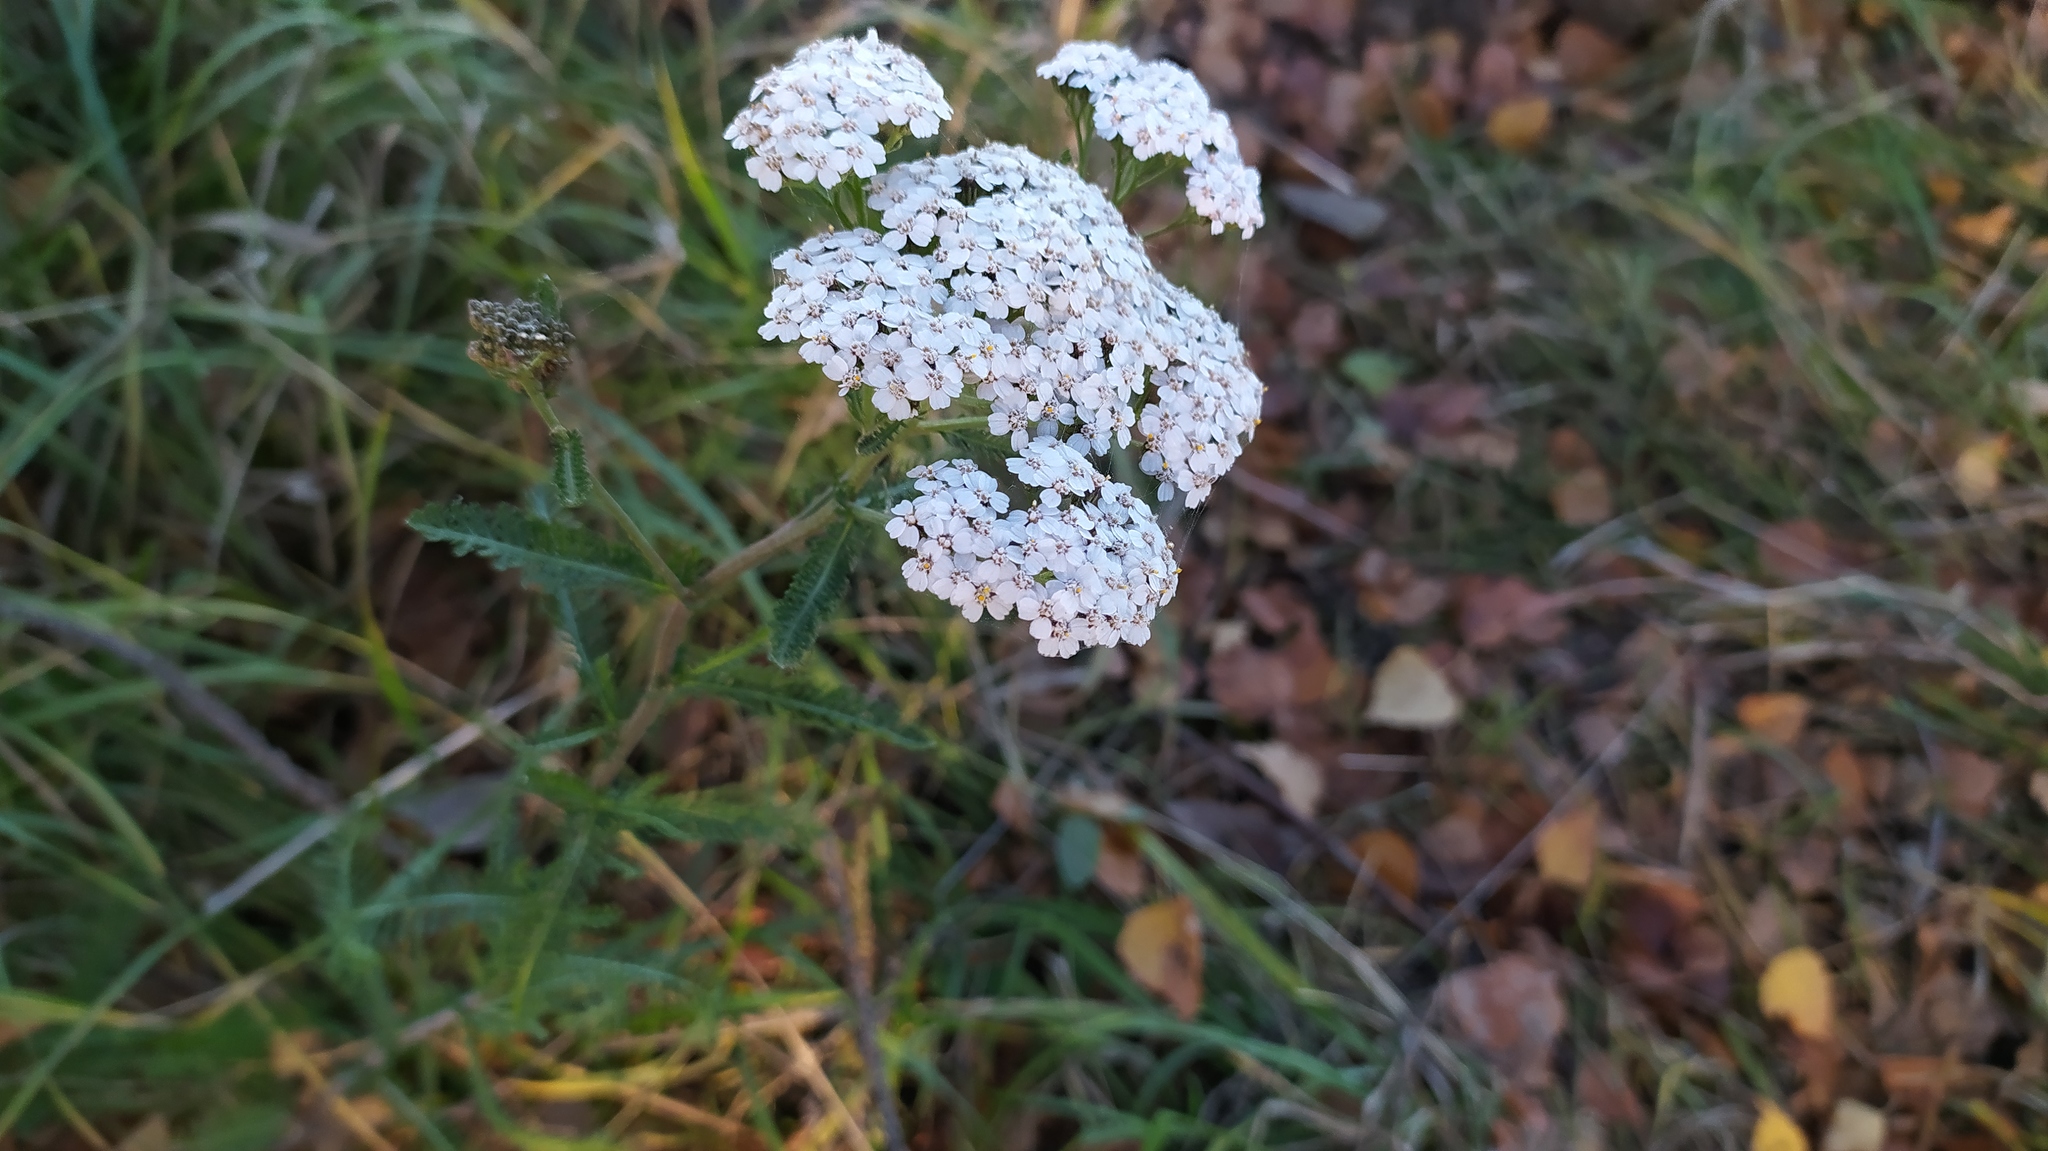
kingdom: Plantae
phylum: Tracheophyta
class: Magnoliopsida
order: Asterales
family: Asteraceae
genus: Achillea
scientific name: Achillea millefolium
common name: Yarrow
